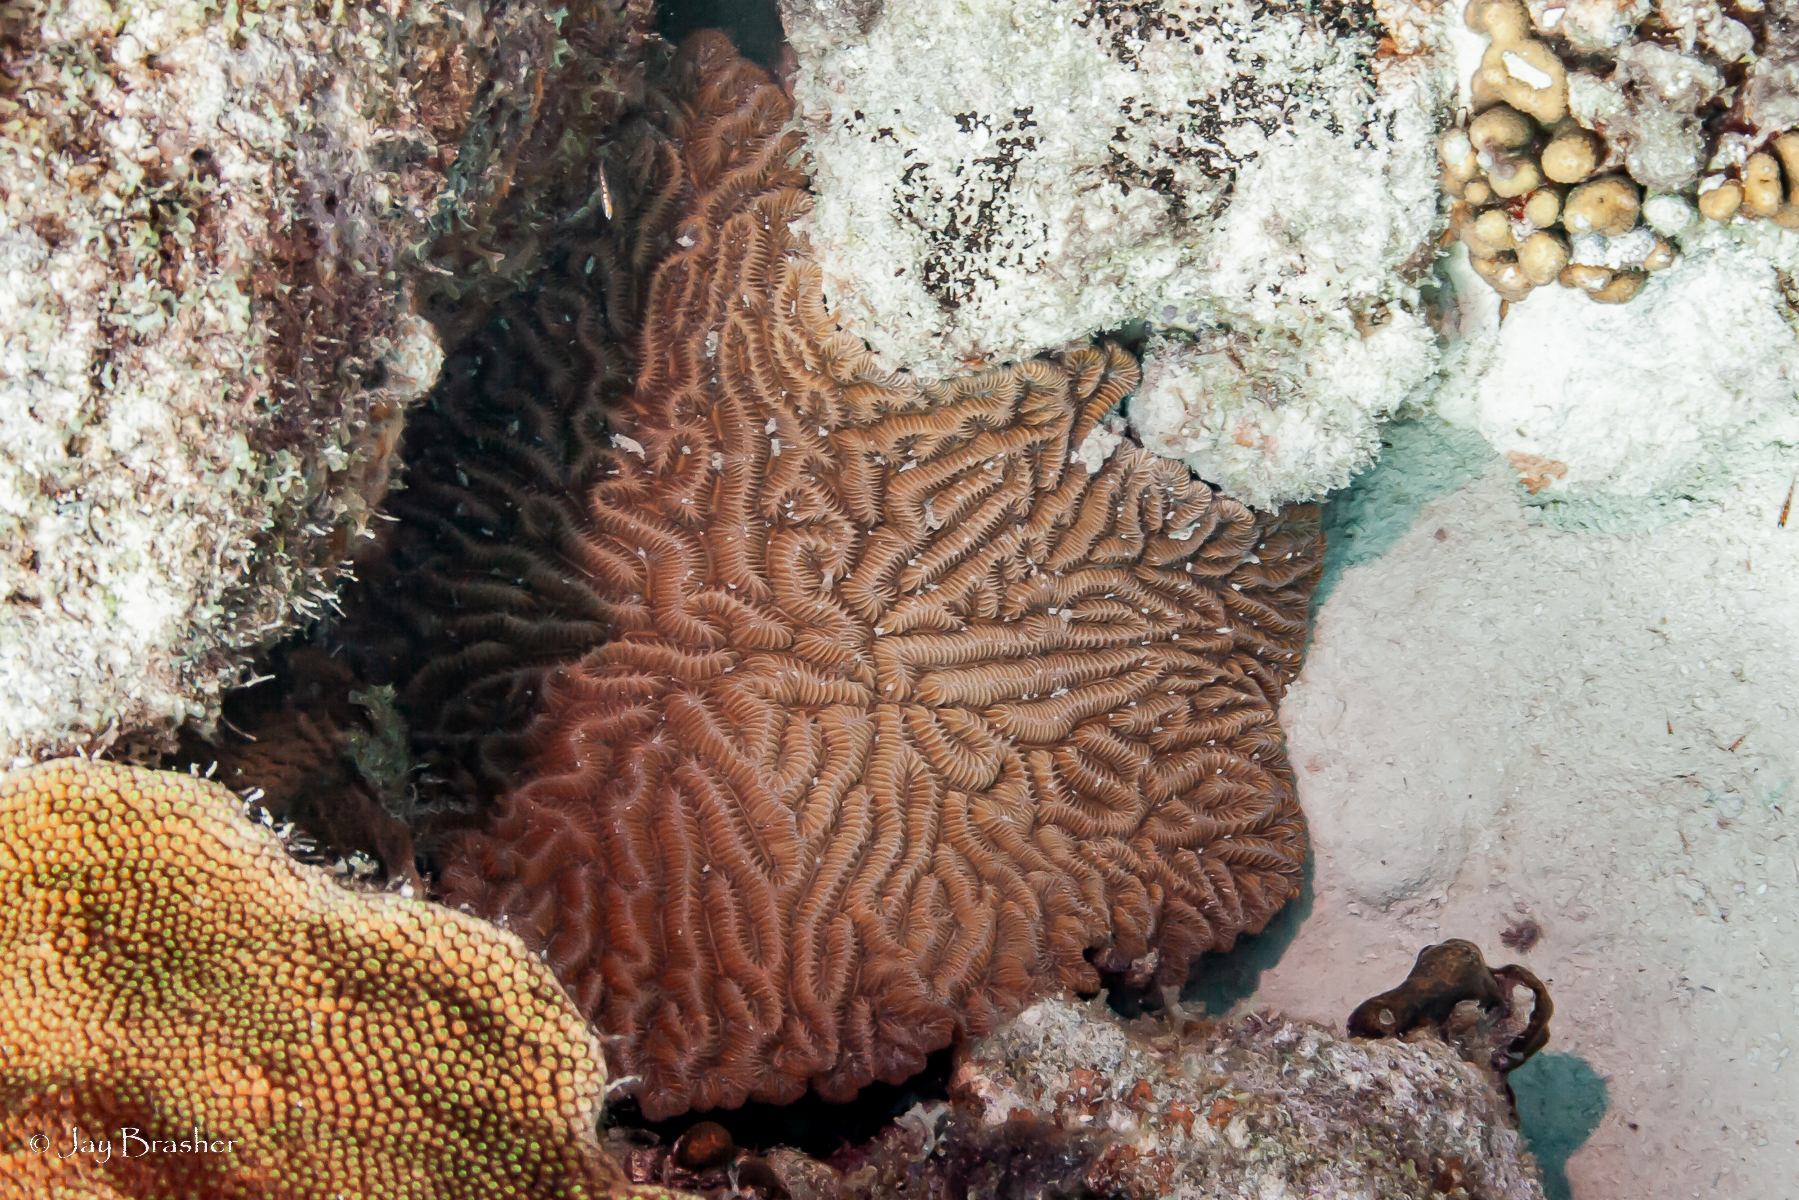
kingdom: Animalia
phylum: Cnidaria
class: Anthozoa
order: Scleractinia
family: Meandrinidae
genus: Meandrina
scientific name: Meandrina meandrites
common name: Maze coral
